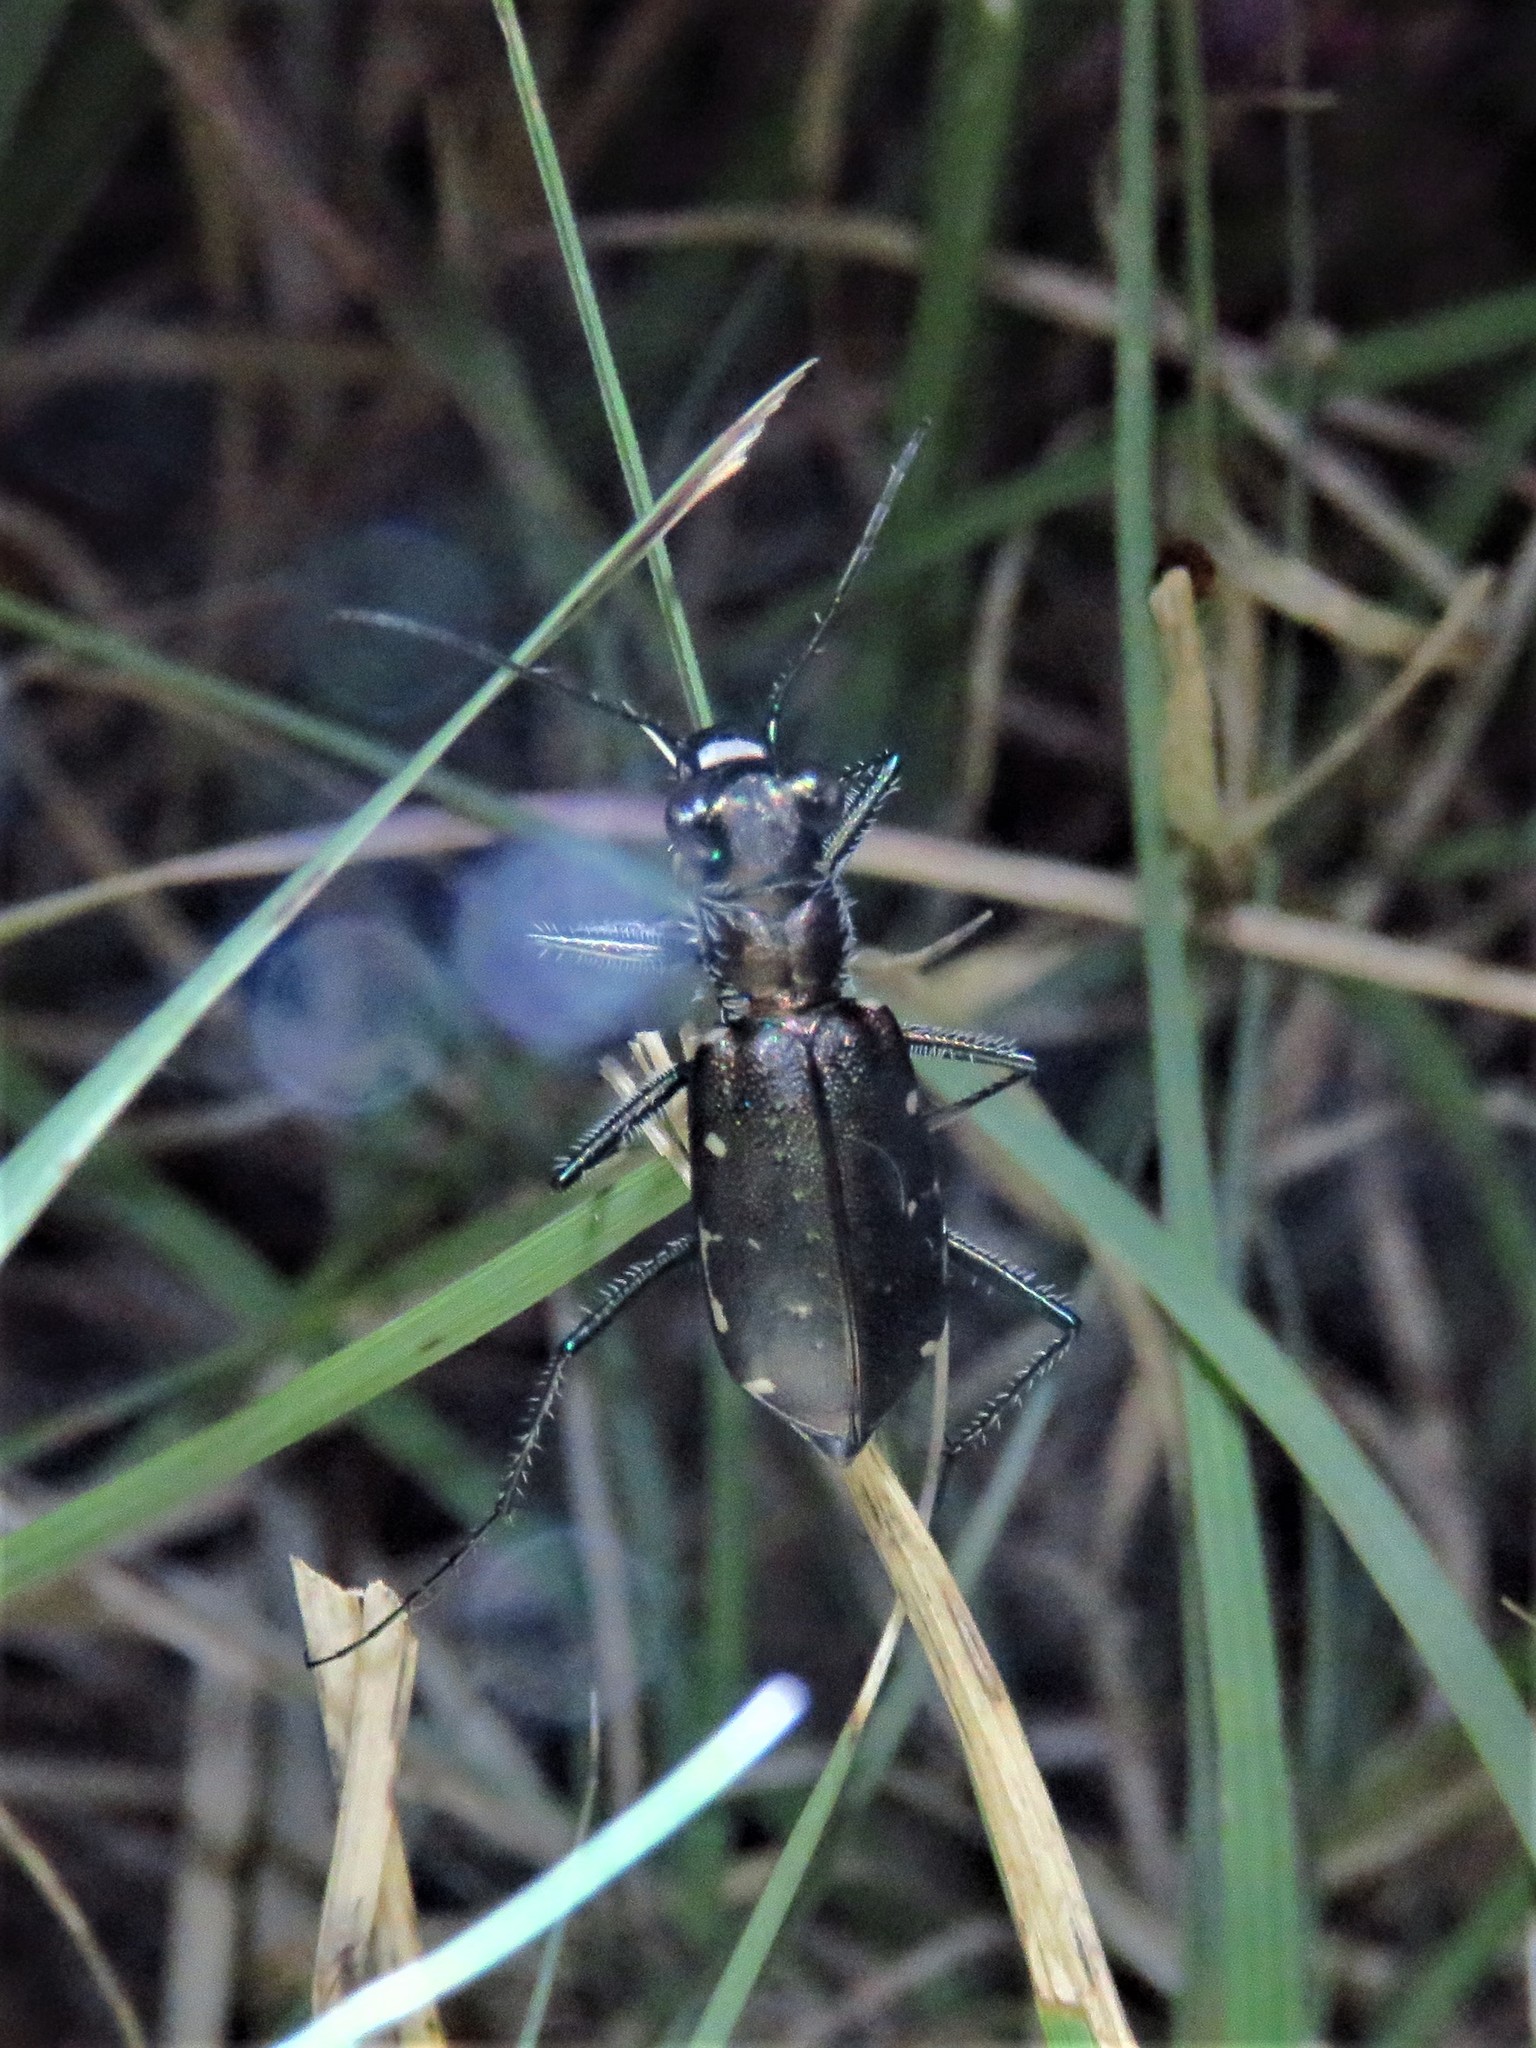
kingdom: Animalia
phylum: Arthropoda
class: Insecta
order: Coleoptera
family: Carabidae
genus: Cicindela
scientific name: Cicindela punctulata
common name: Punctured tiger beetle
